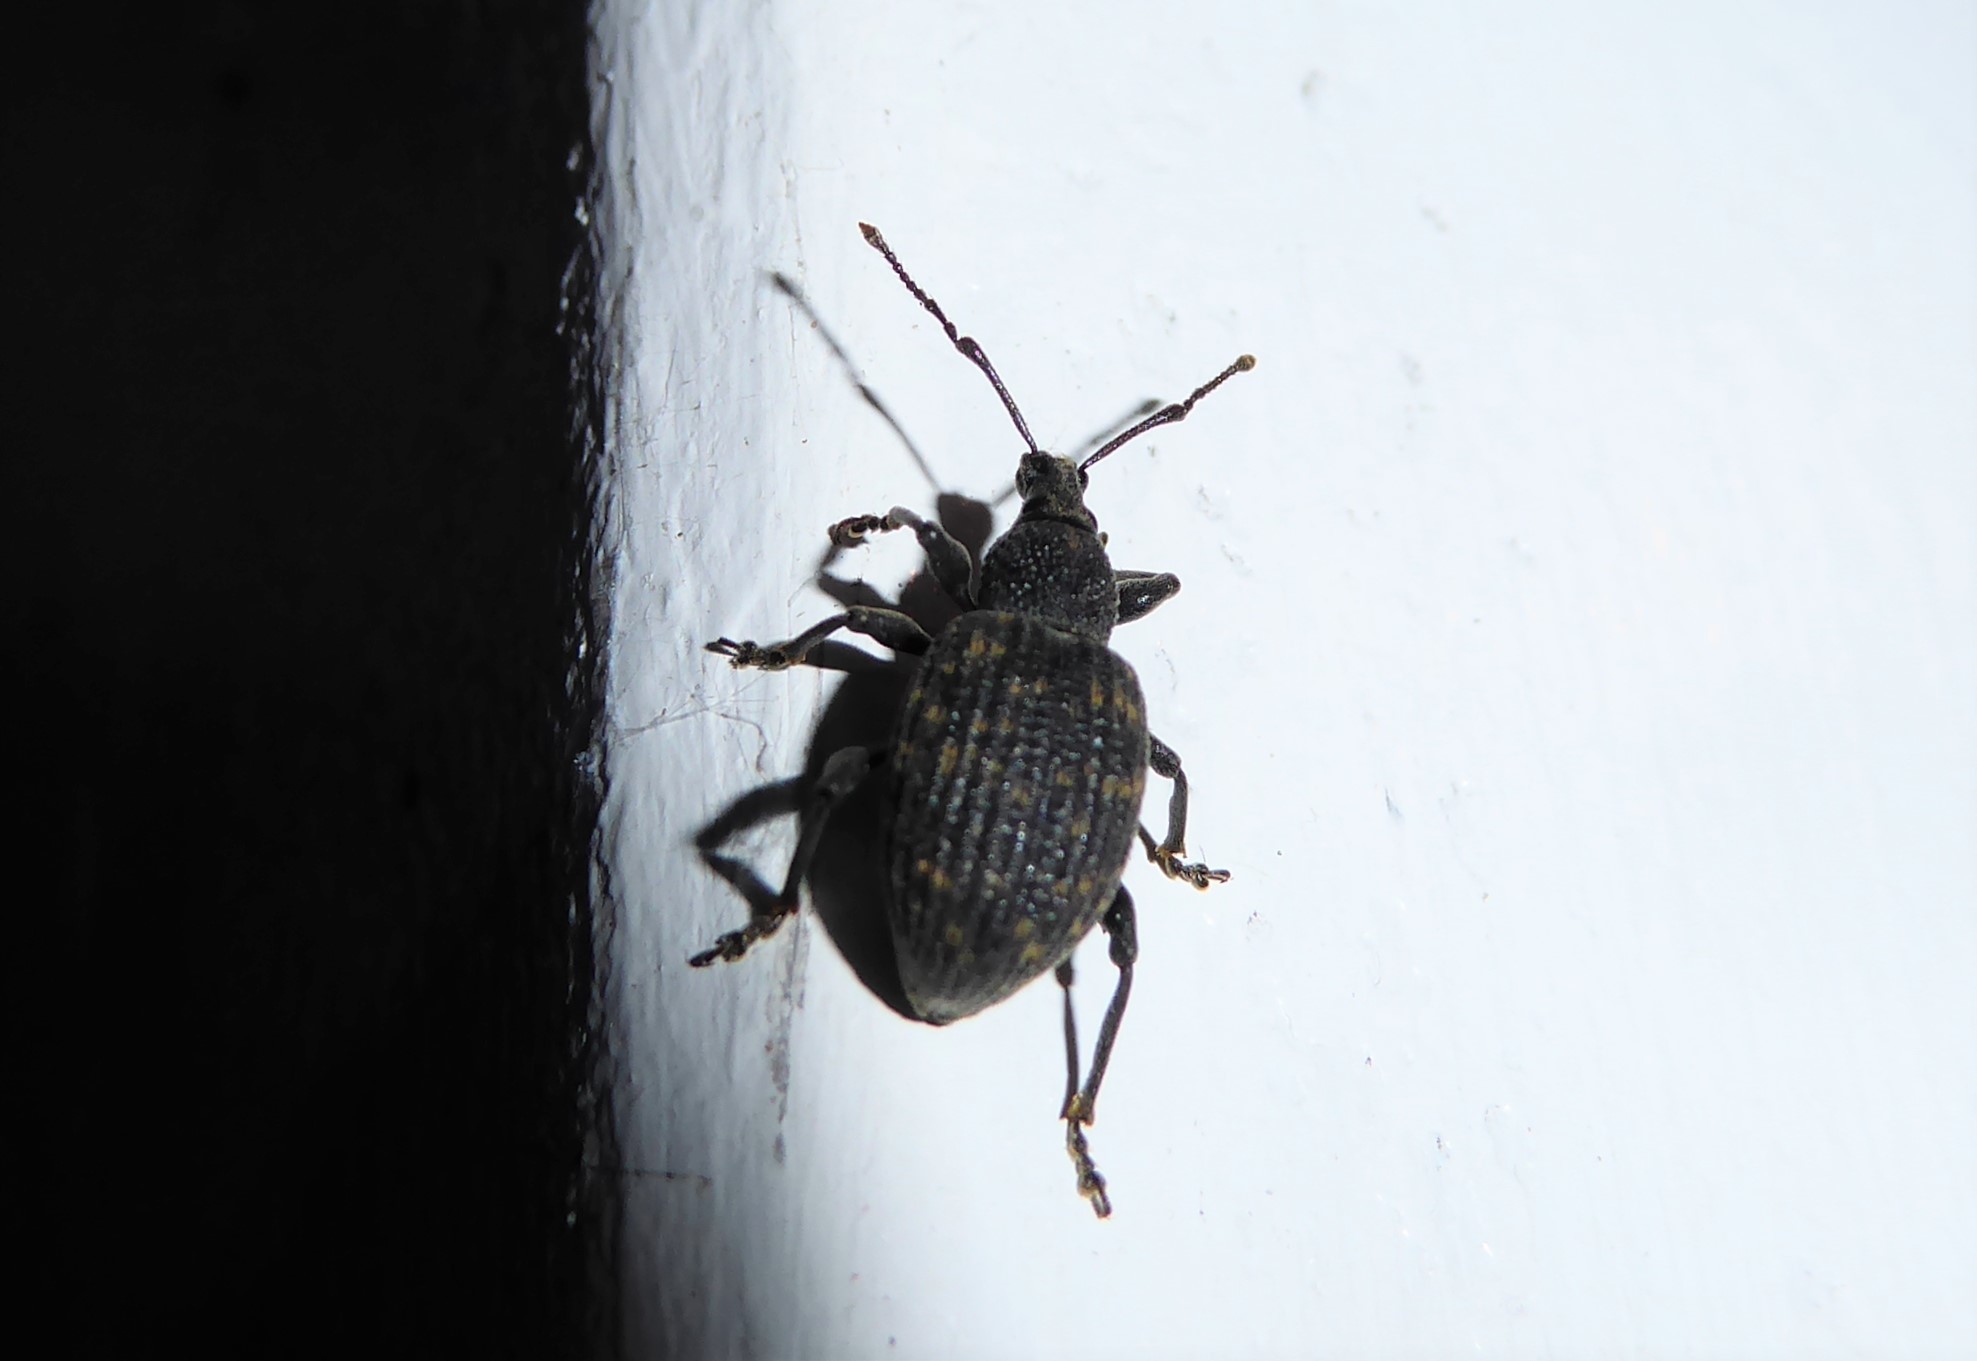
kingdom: Animalia
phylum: Arthropoda
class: Insecta
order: Coleoptera
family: Curculionidae
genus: Otiorhynchus
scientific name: Otiorhynchus sulcatus
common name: Black vine weevil
